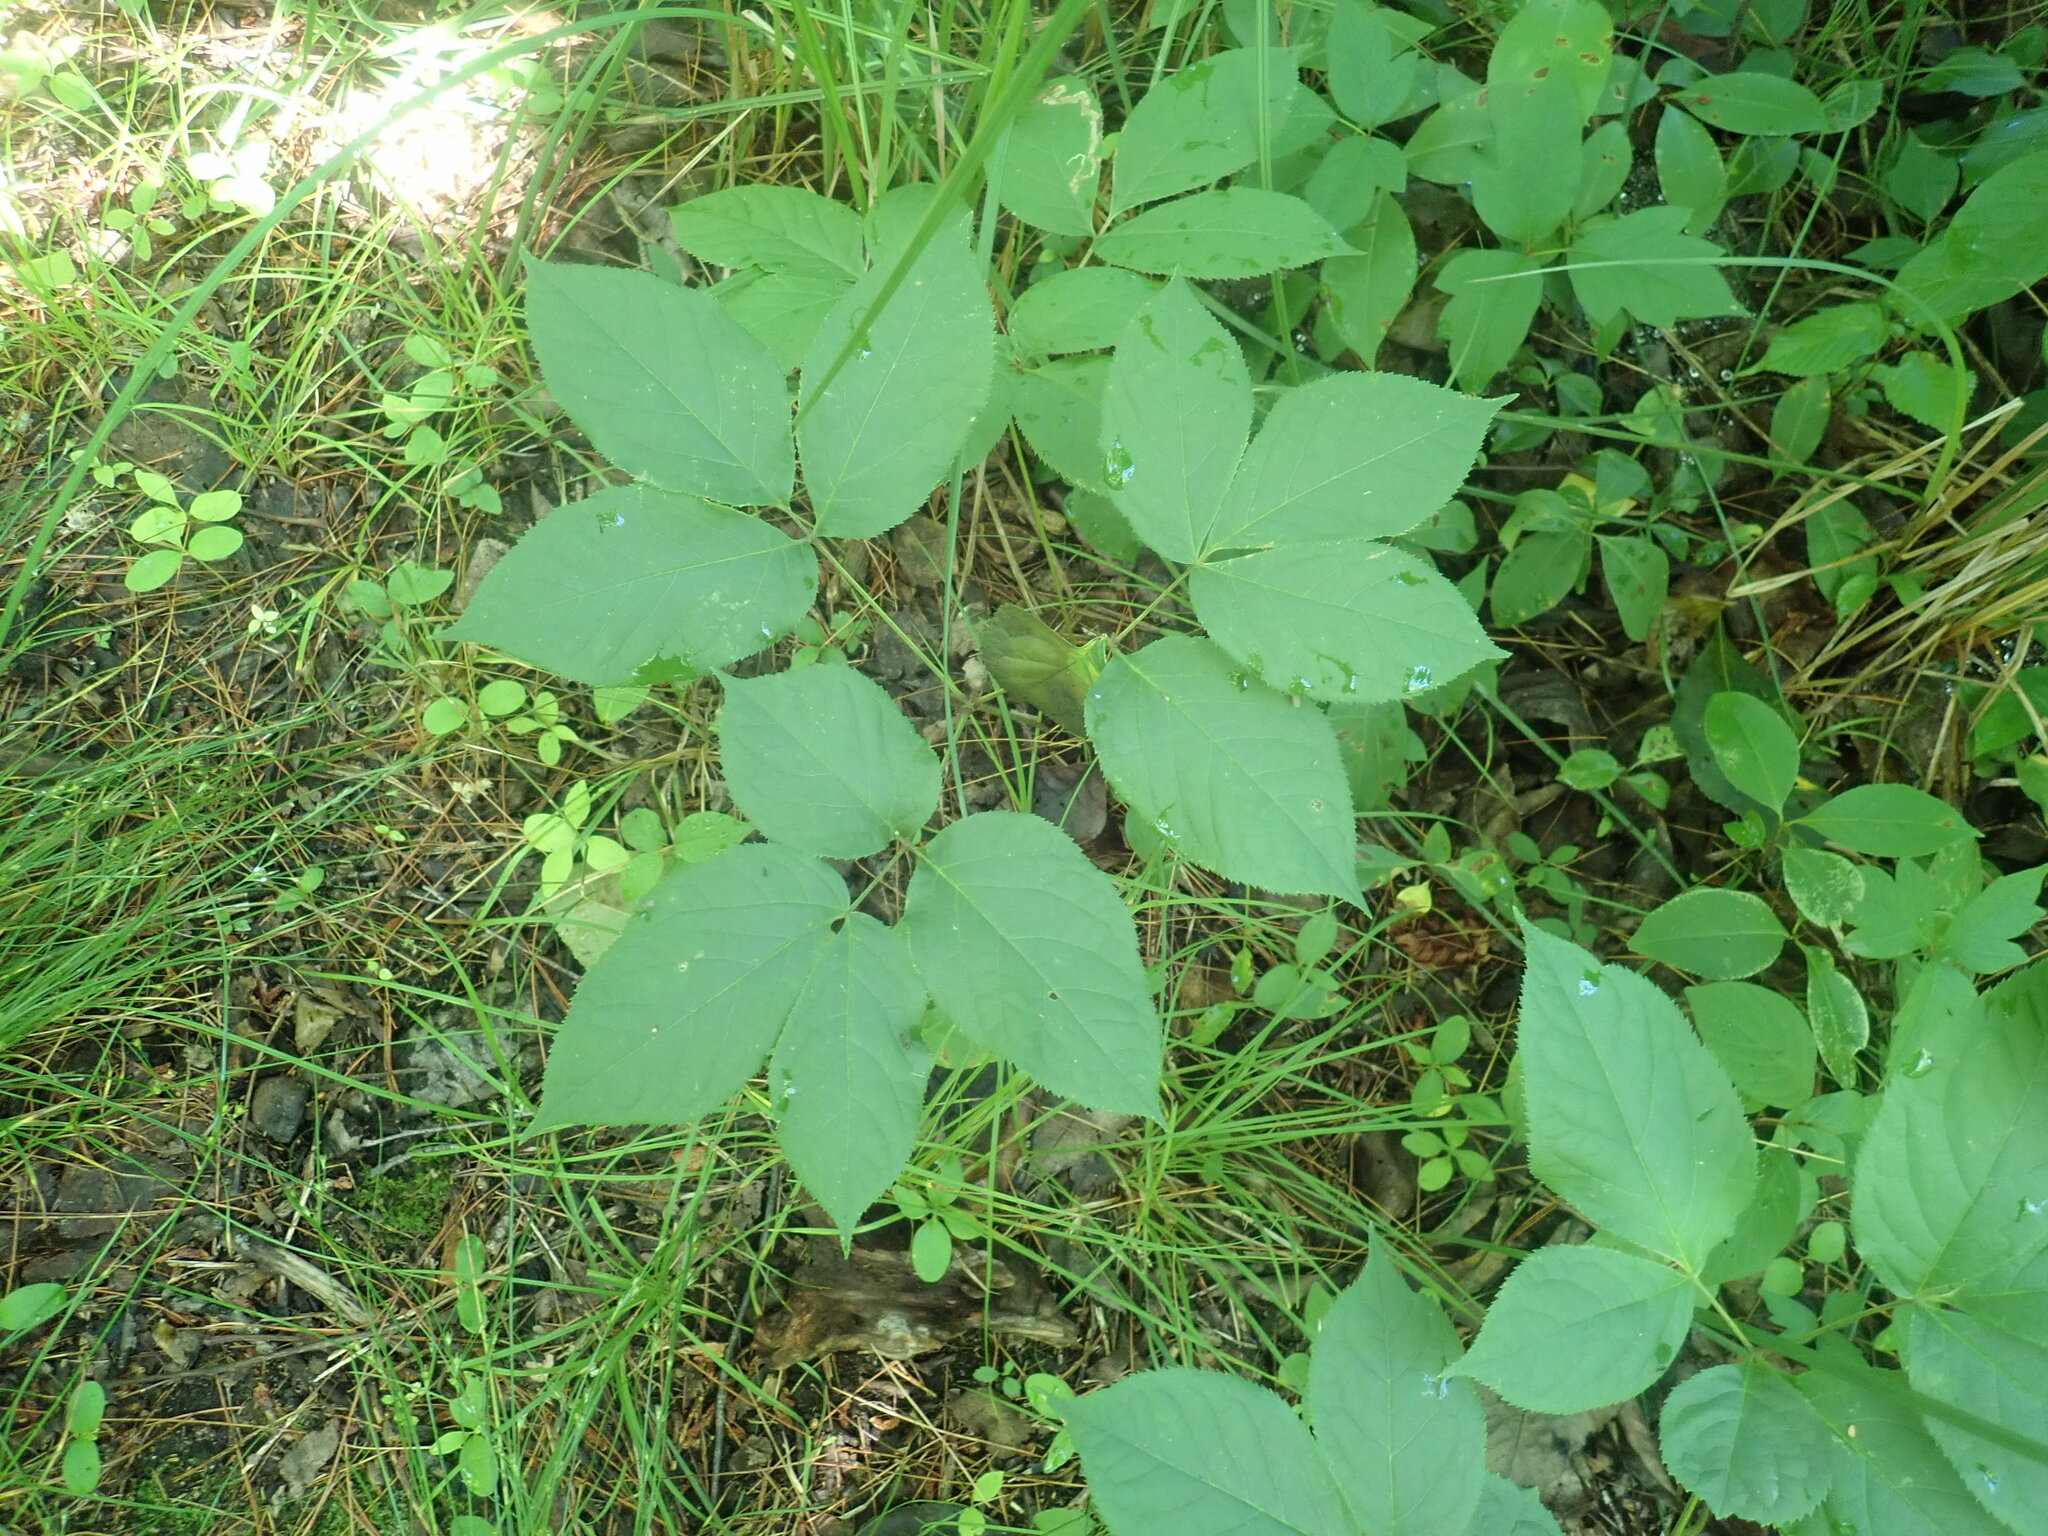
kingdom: Plantae
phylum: Tracheophyta
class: Magnoliopsida
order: Apiales
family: Araliaceae
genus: Aralia
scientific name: Aralia nudicaulis
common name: Wild sarsaparilla
